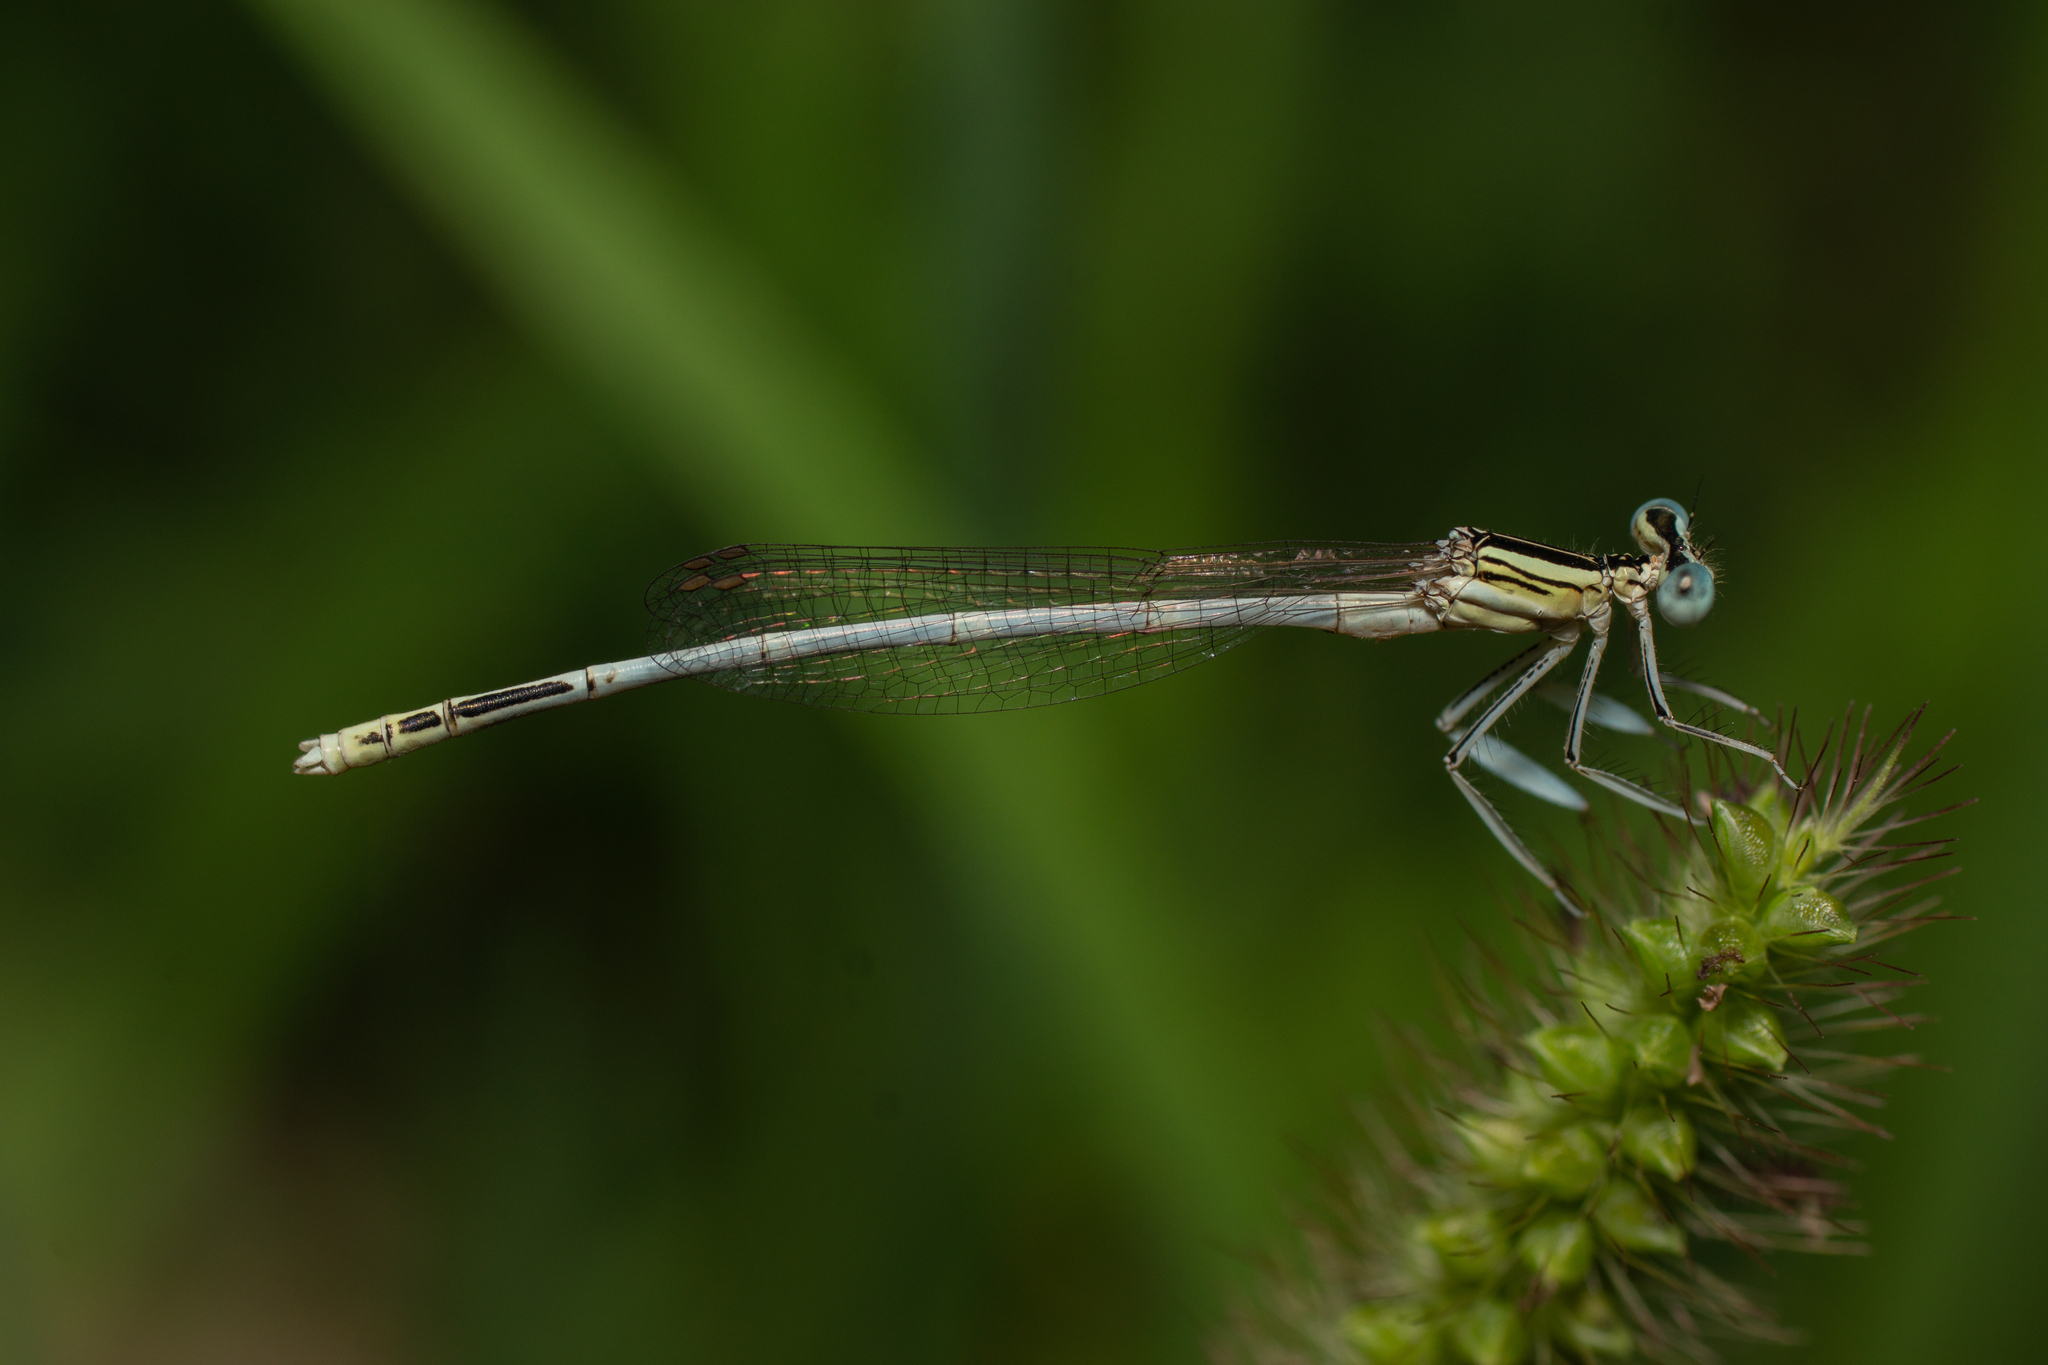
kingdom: Animalia
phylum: Arthropoda
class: Insecta
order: Odonata
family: Platycnemididae
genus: Platycnemis
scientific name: Platycnemis latipes
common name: White featherleg
